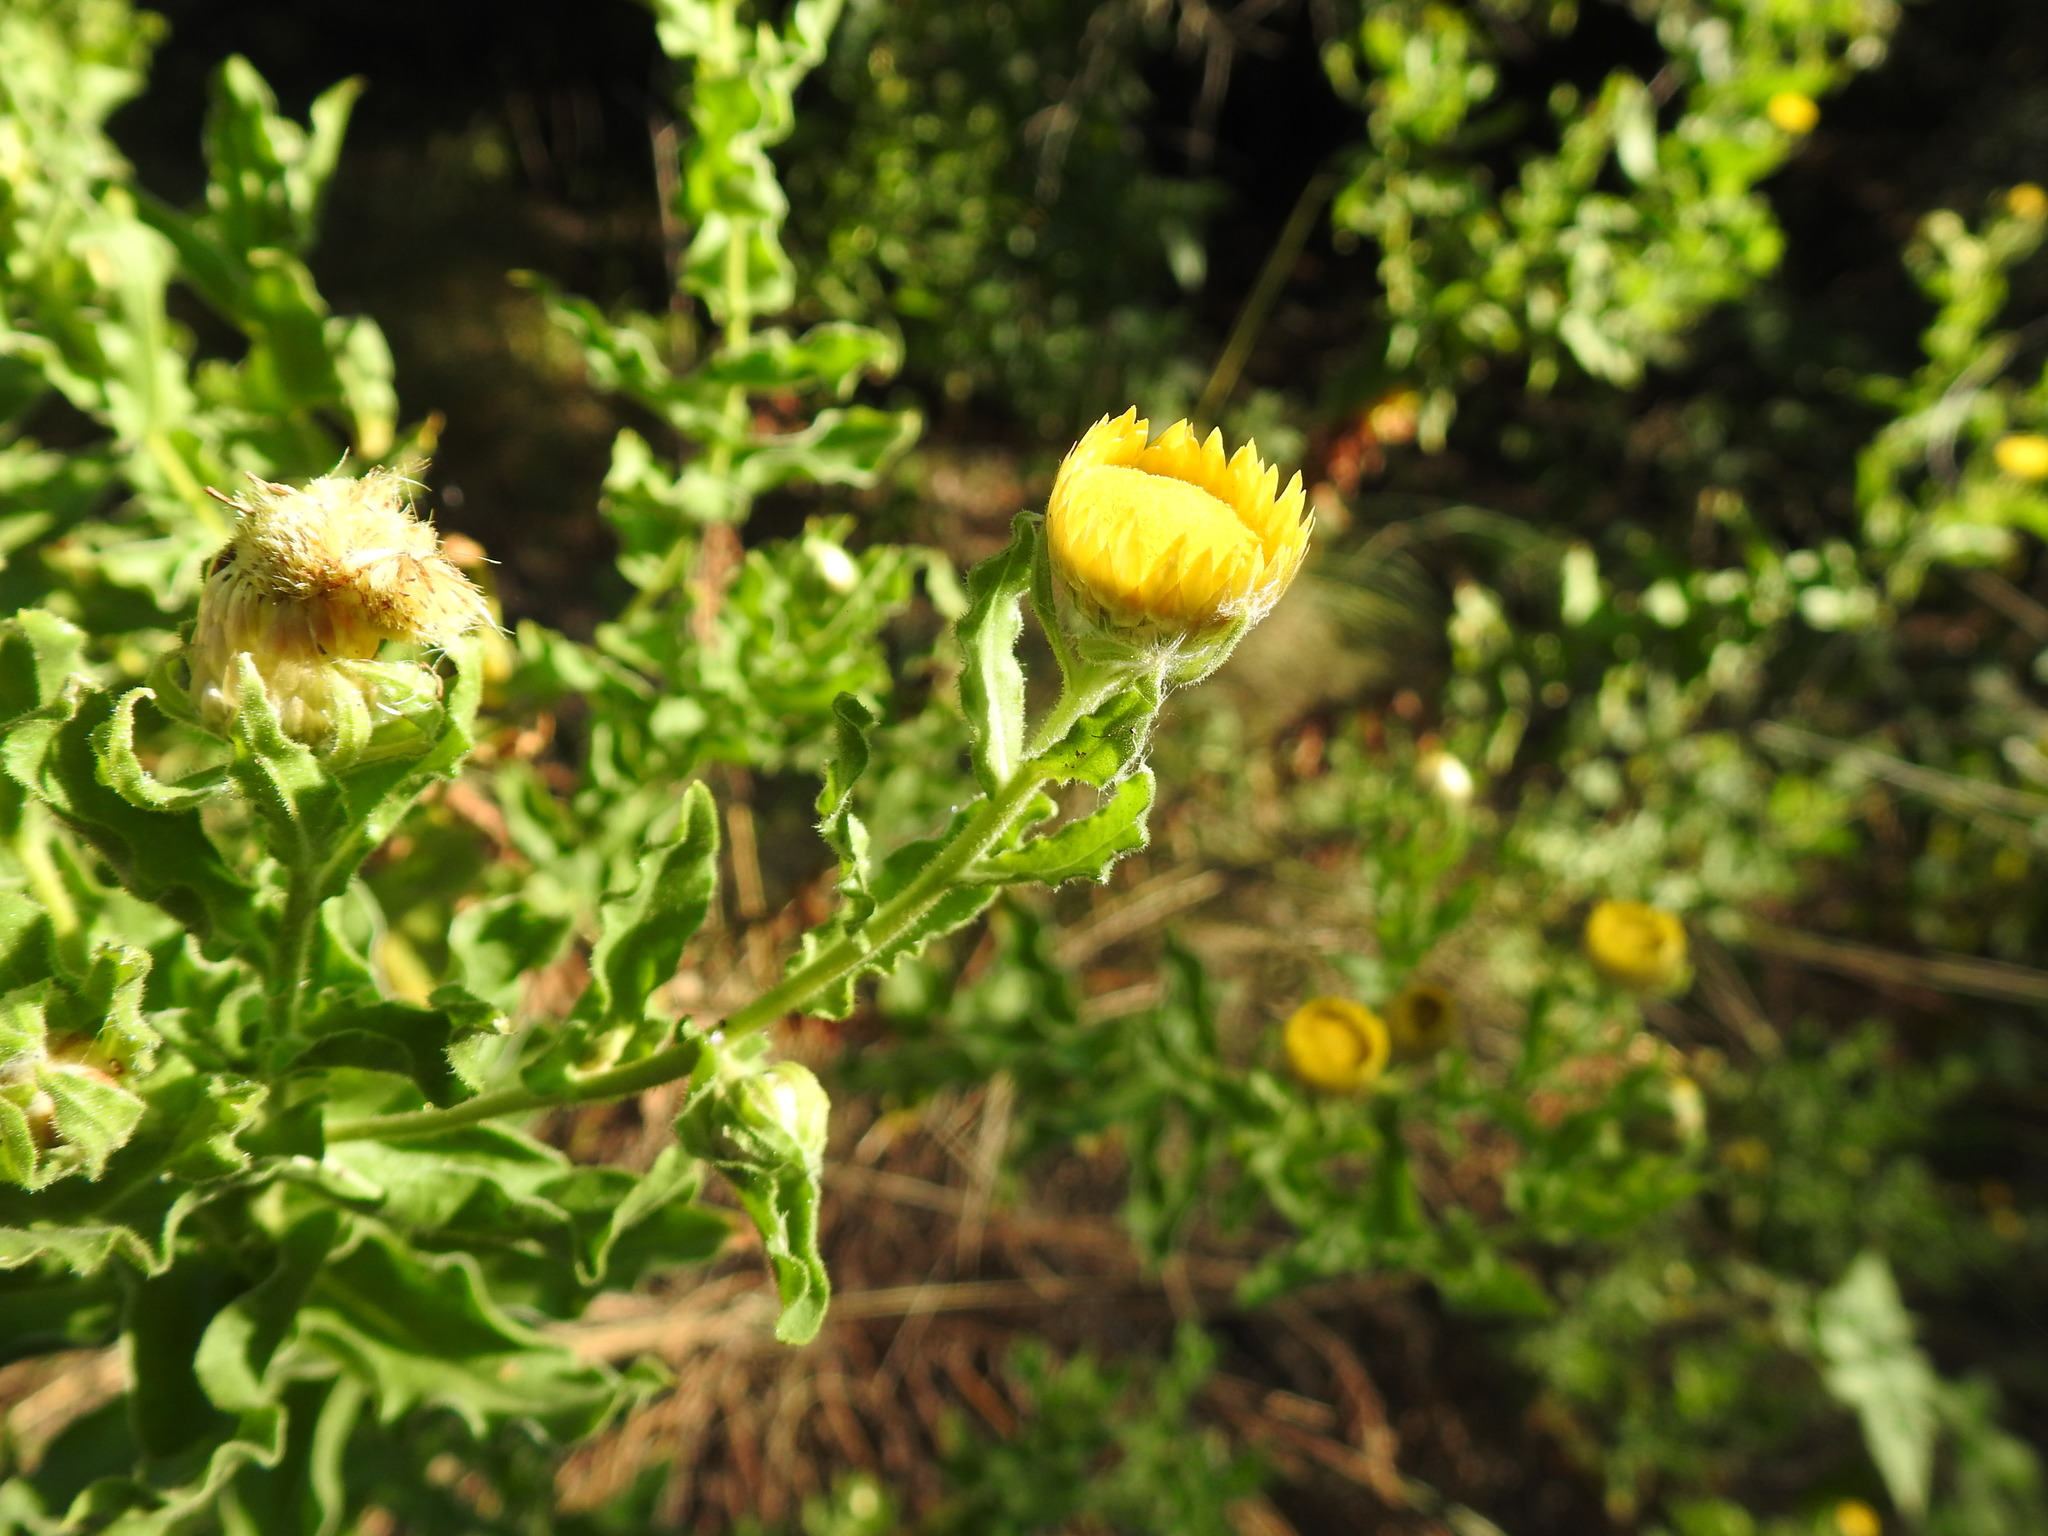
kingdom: Plantae
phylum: Tracheophyta
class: Magnoliopsida
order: Asterales
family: Asteraceae
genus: Helichrysum
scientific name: Helichrysum setosum
